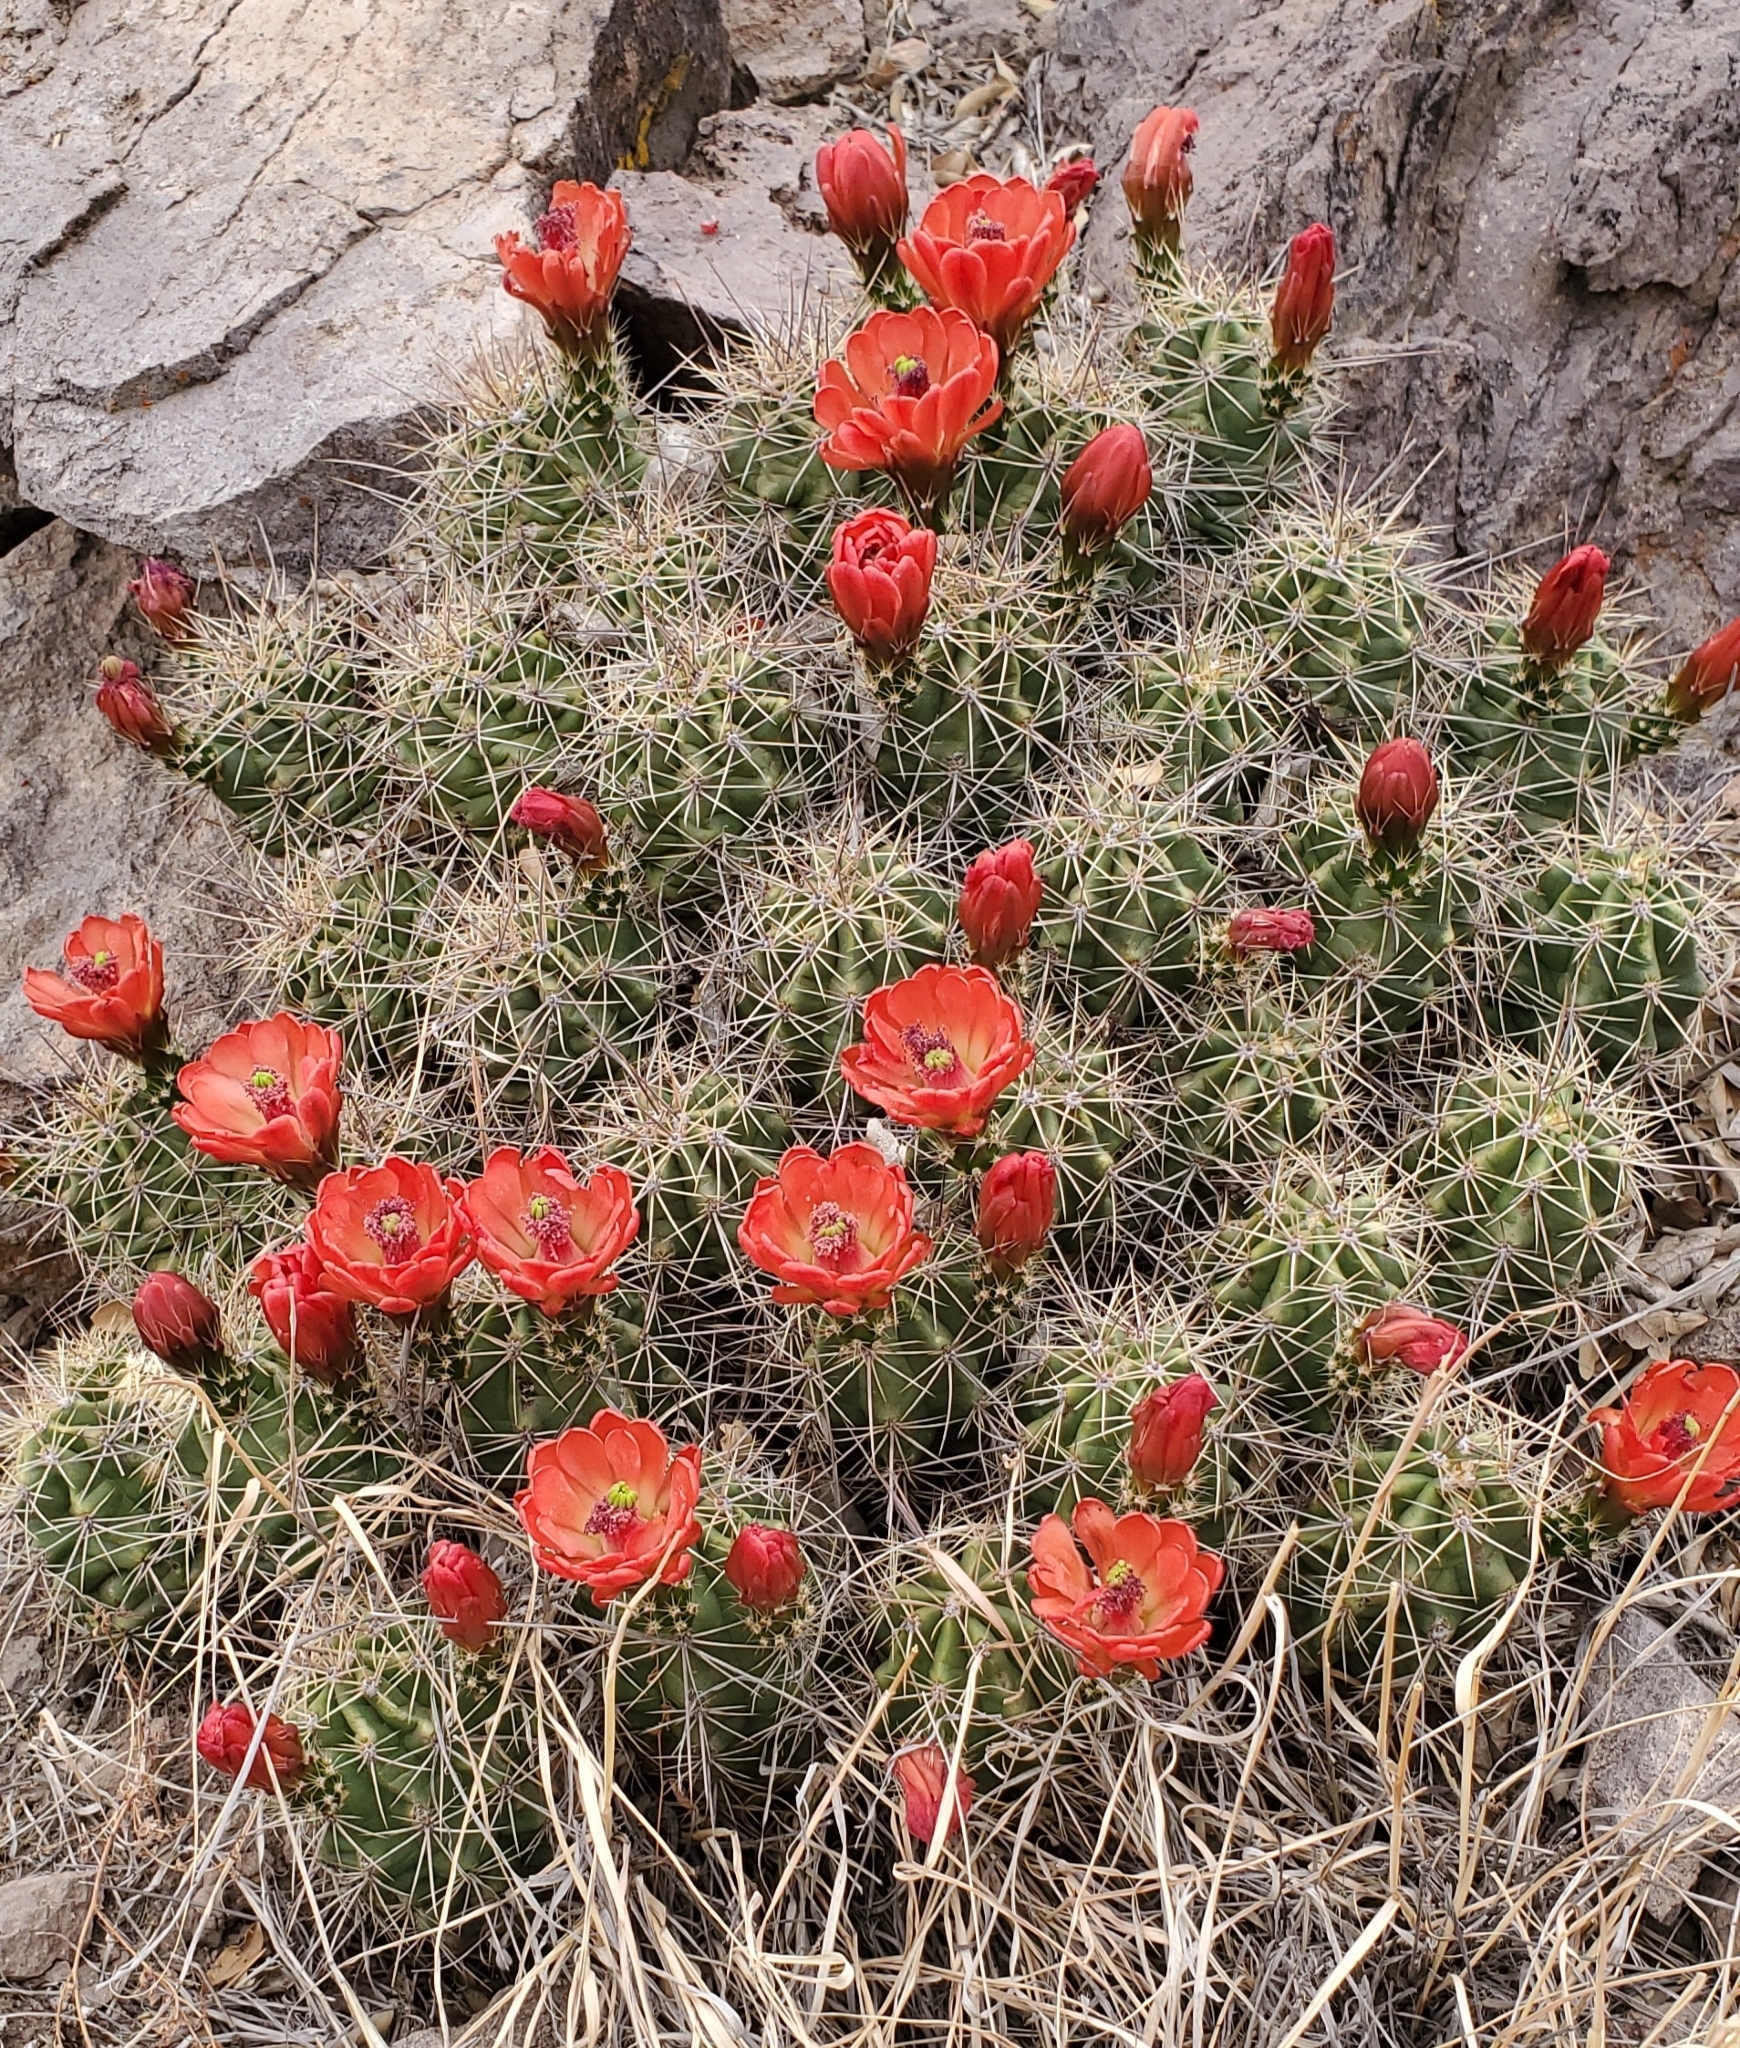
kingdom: Plantae
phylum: Tracheophyta
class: Magnoliopsida
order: Caryophyllales
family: Cactaceae
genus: Echinocereus
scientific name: Echinocereus coccineus
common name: Scarlet hedgehog cactus
